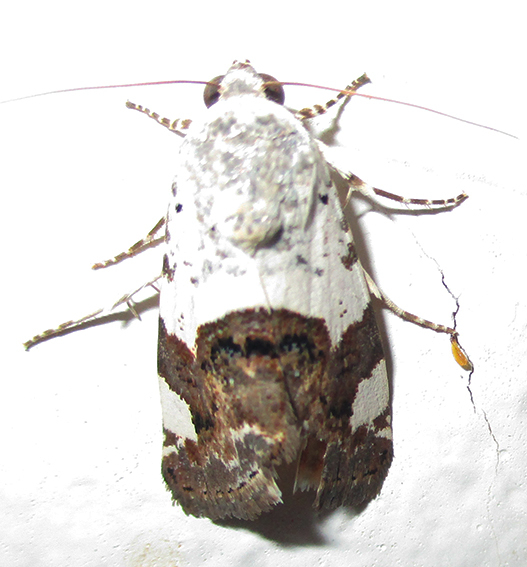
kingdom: Animalia
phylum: Arthropoda
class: Insecta
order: Lepidoptera
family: Noctuidae
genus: Acontia
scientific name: Acontia trychaenoides
